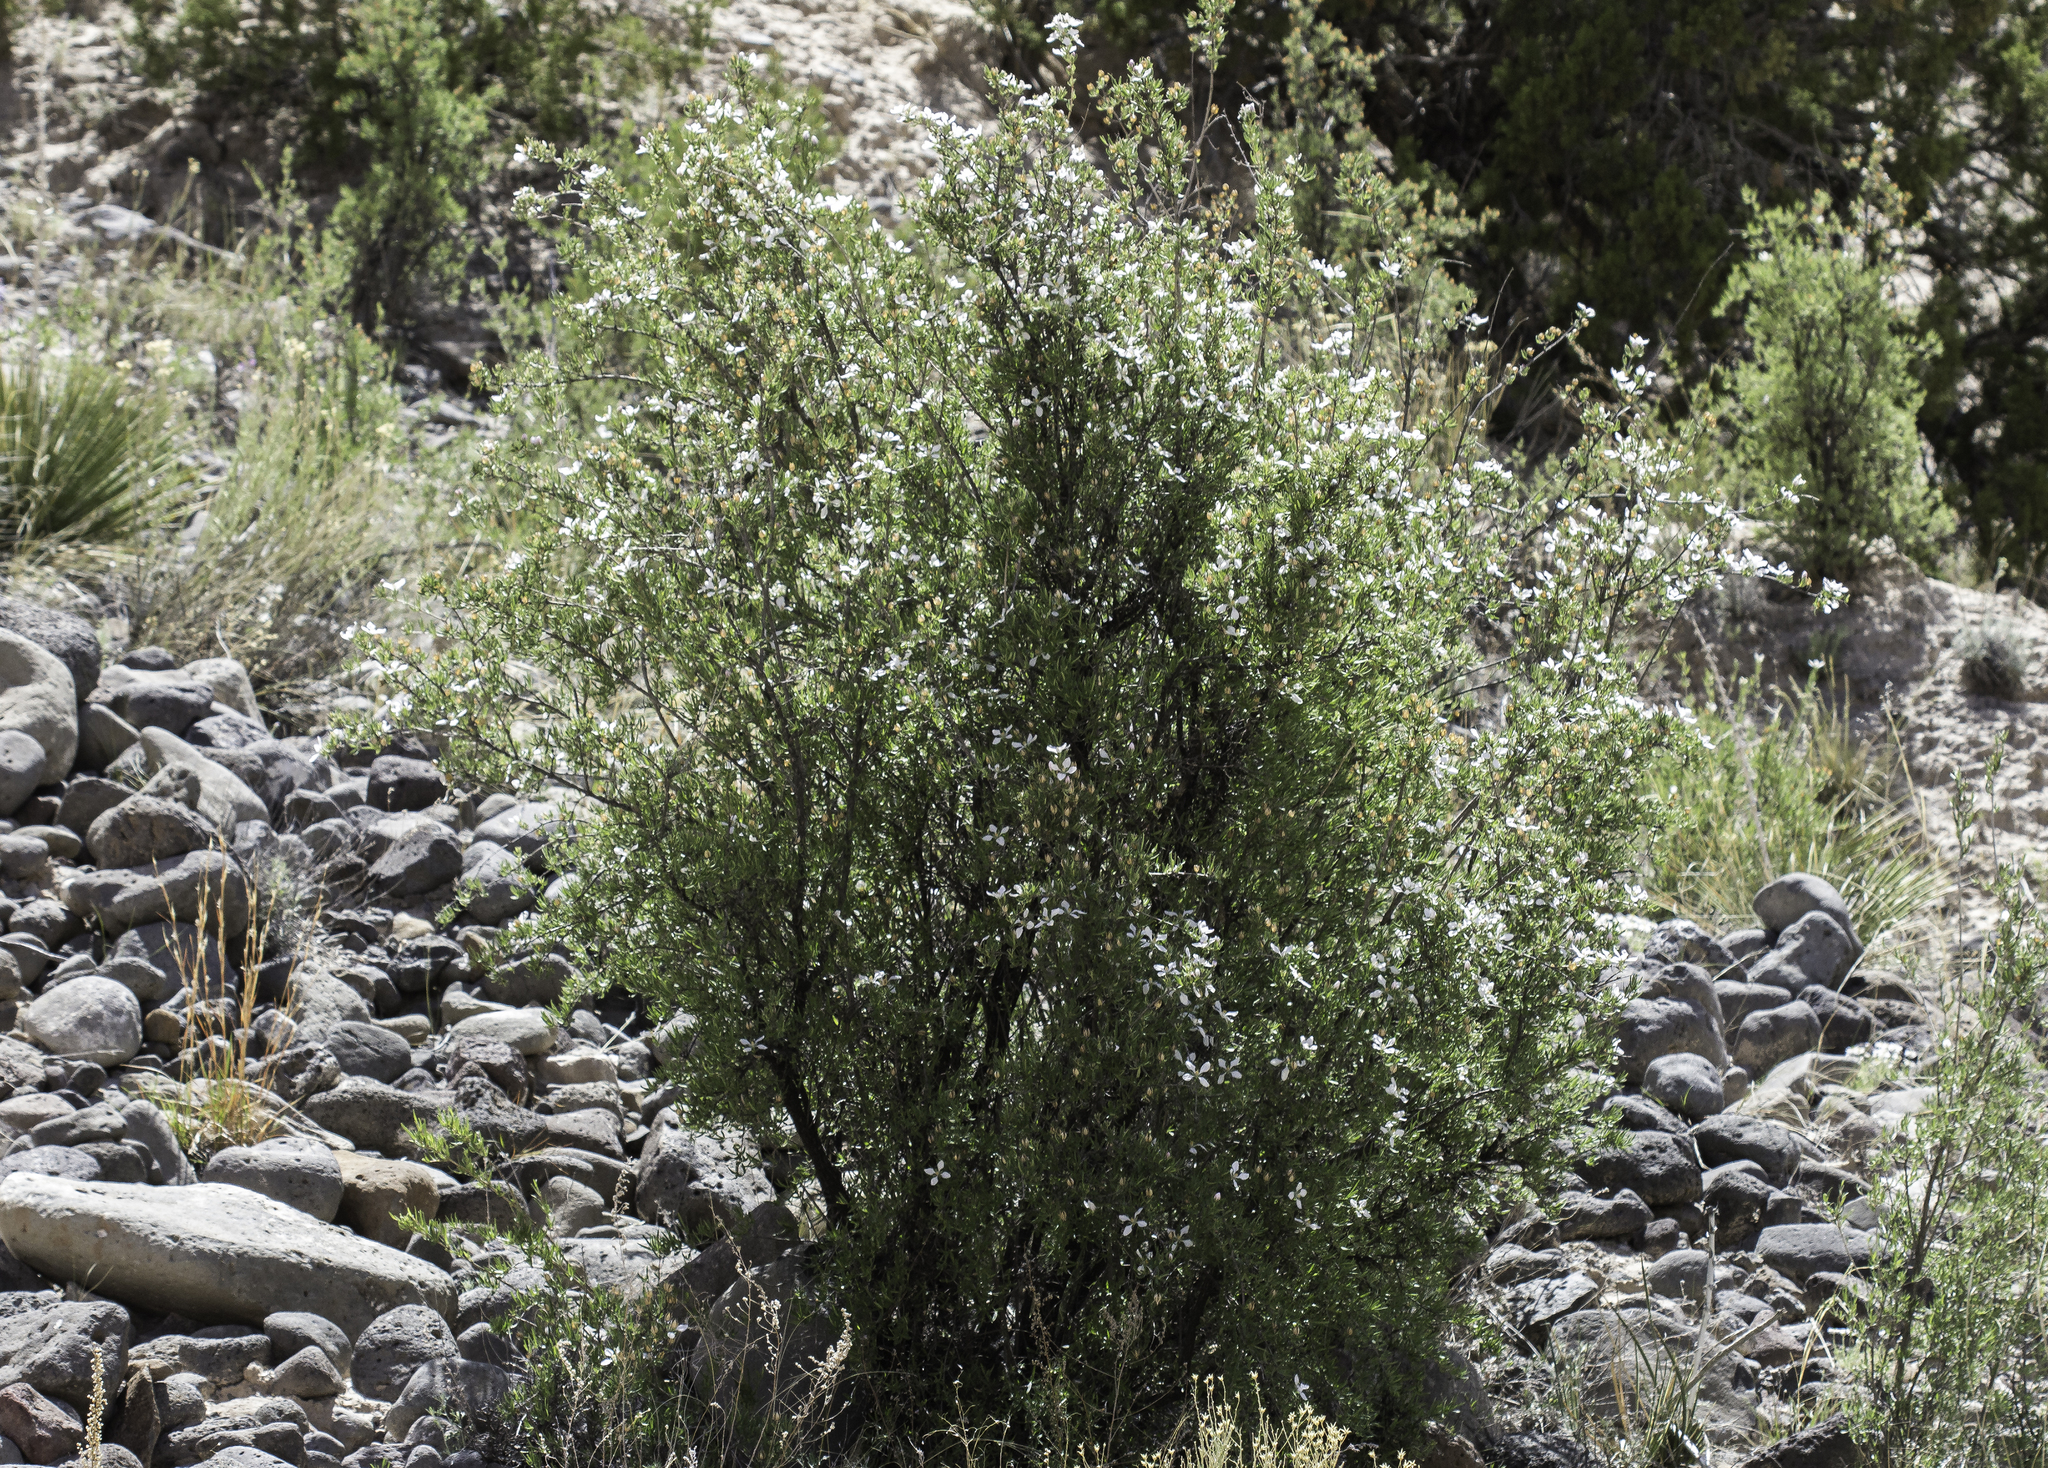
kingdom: Plantae
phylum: Tracheophyta
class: Magnoliopsida
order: Cornales
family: Hydrangeaceae
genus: Fendlera
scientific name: Fendlera rupicola
